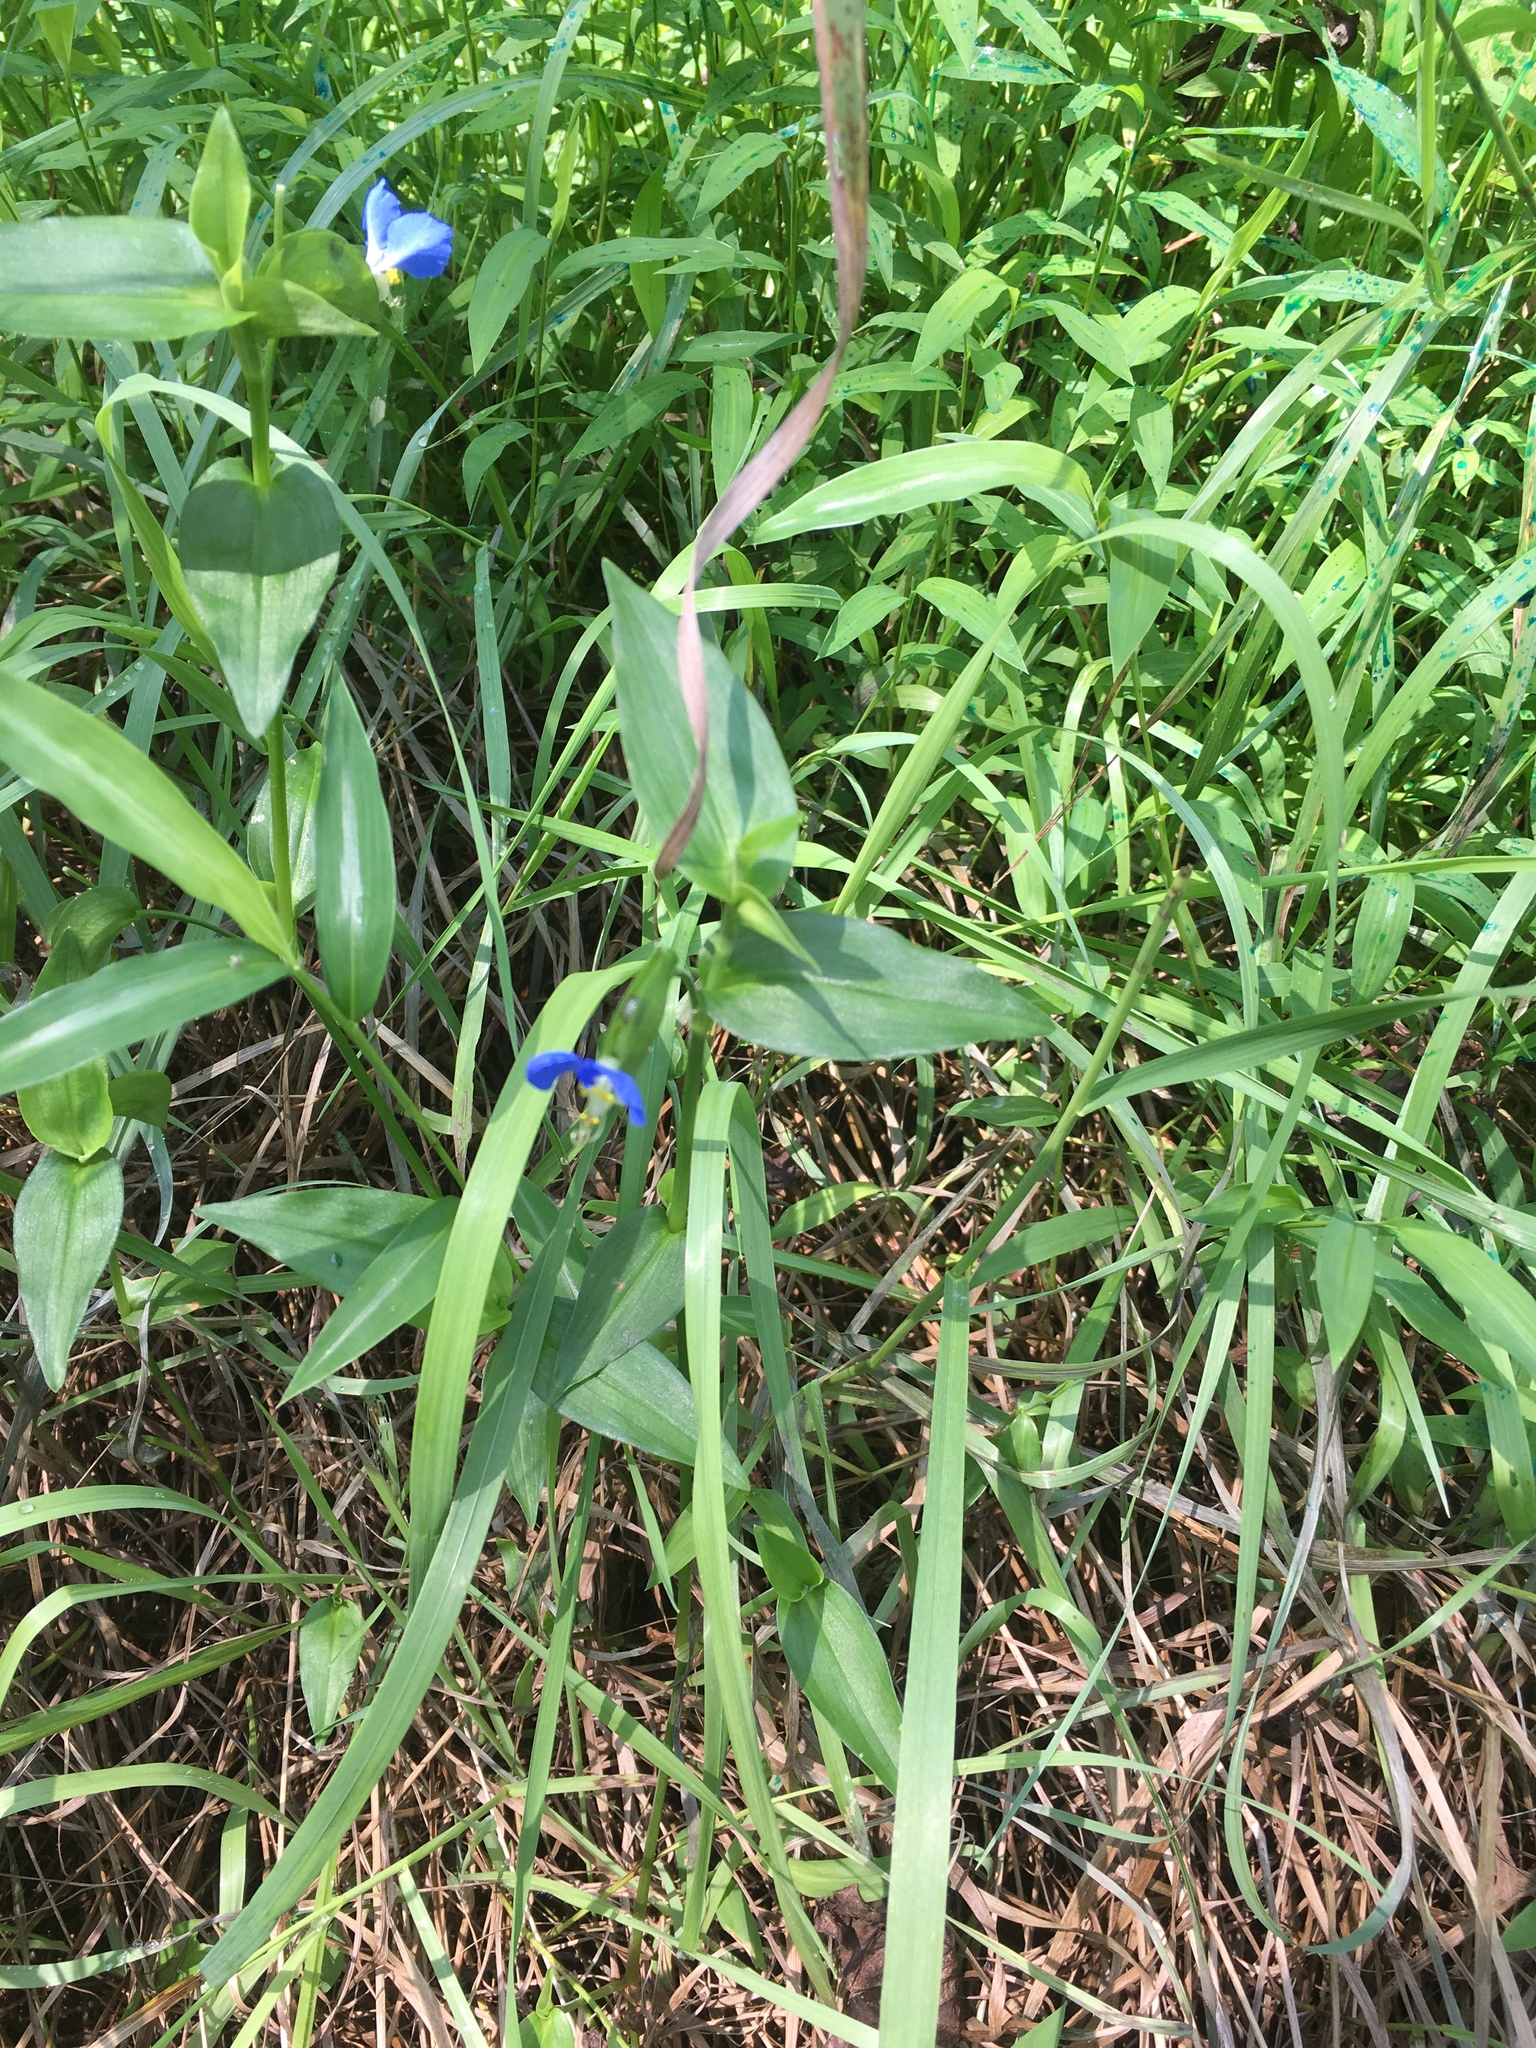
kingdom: Plantae
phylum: Tracheophyta
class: Liliopsida
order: Commelinales
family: Commelinaceae
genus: Commelina
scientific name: Commelina communis
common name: Asiatic dayflower
